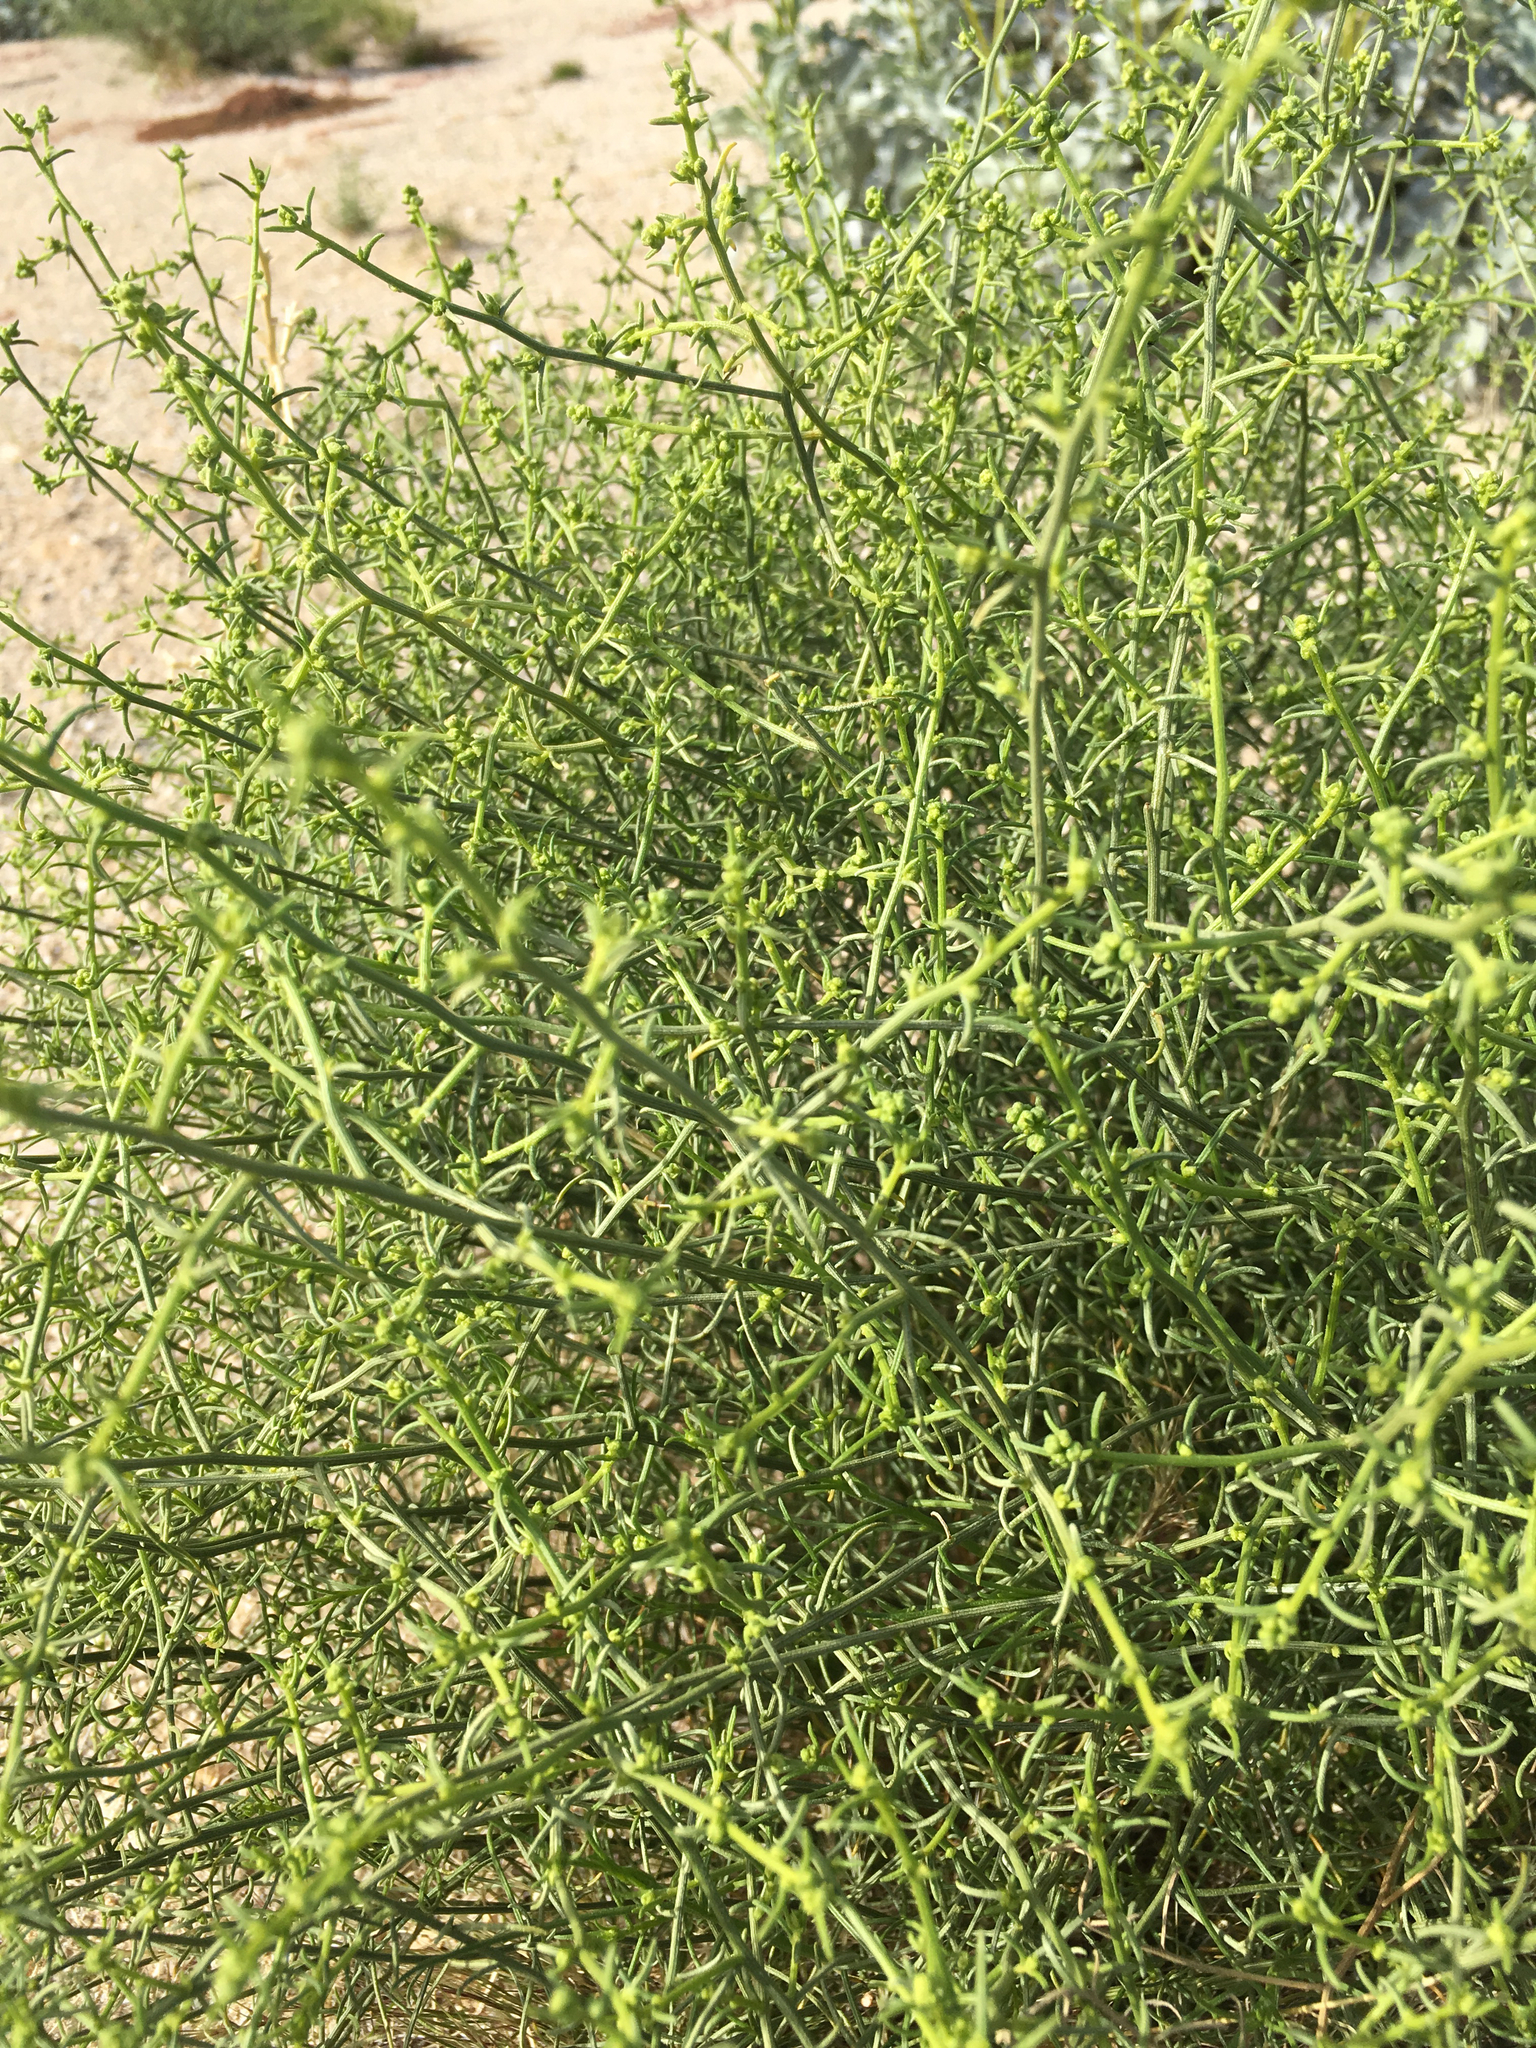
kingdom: Plantae
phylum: Tracheophyta
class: Magnoliopsida
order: Asterales
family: Asteraceae
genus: Ambrosia
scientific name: Ambrosia salsola
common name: Burrobrush
